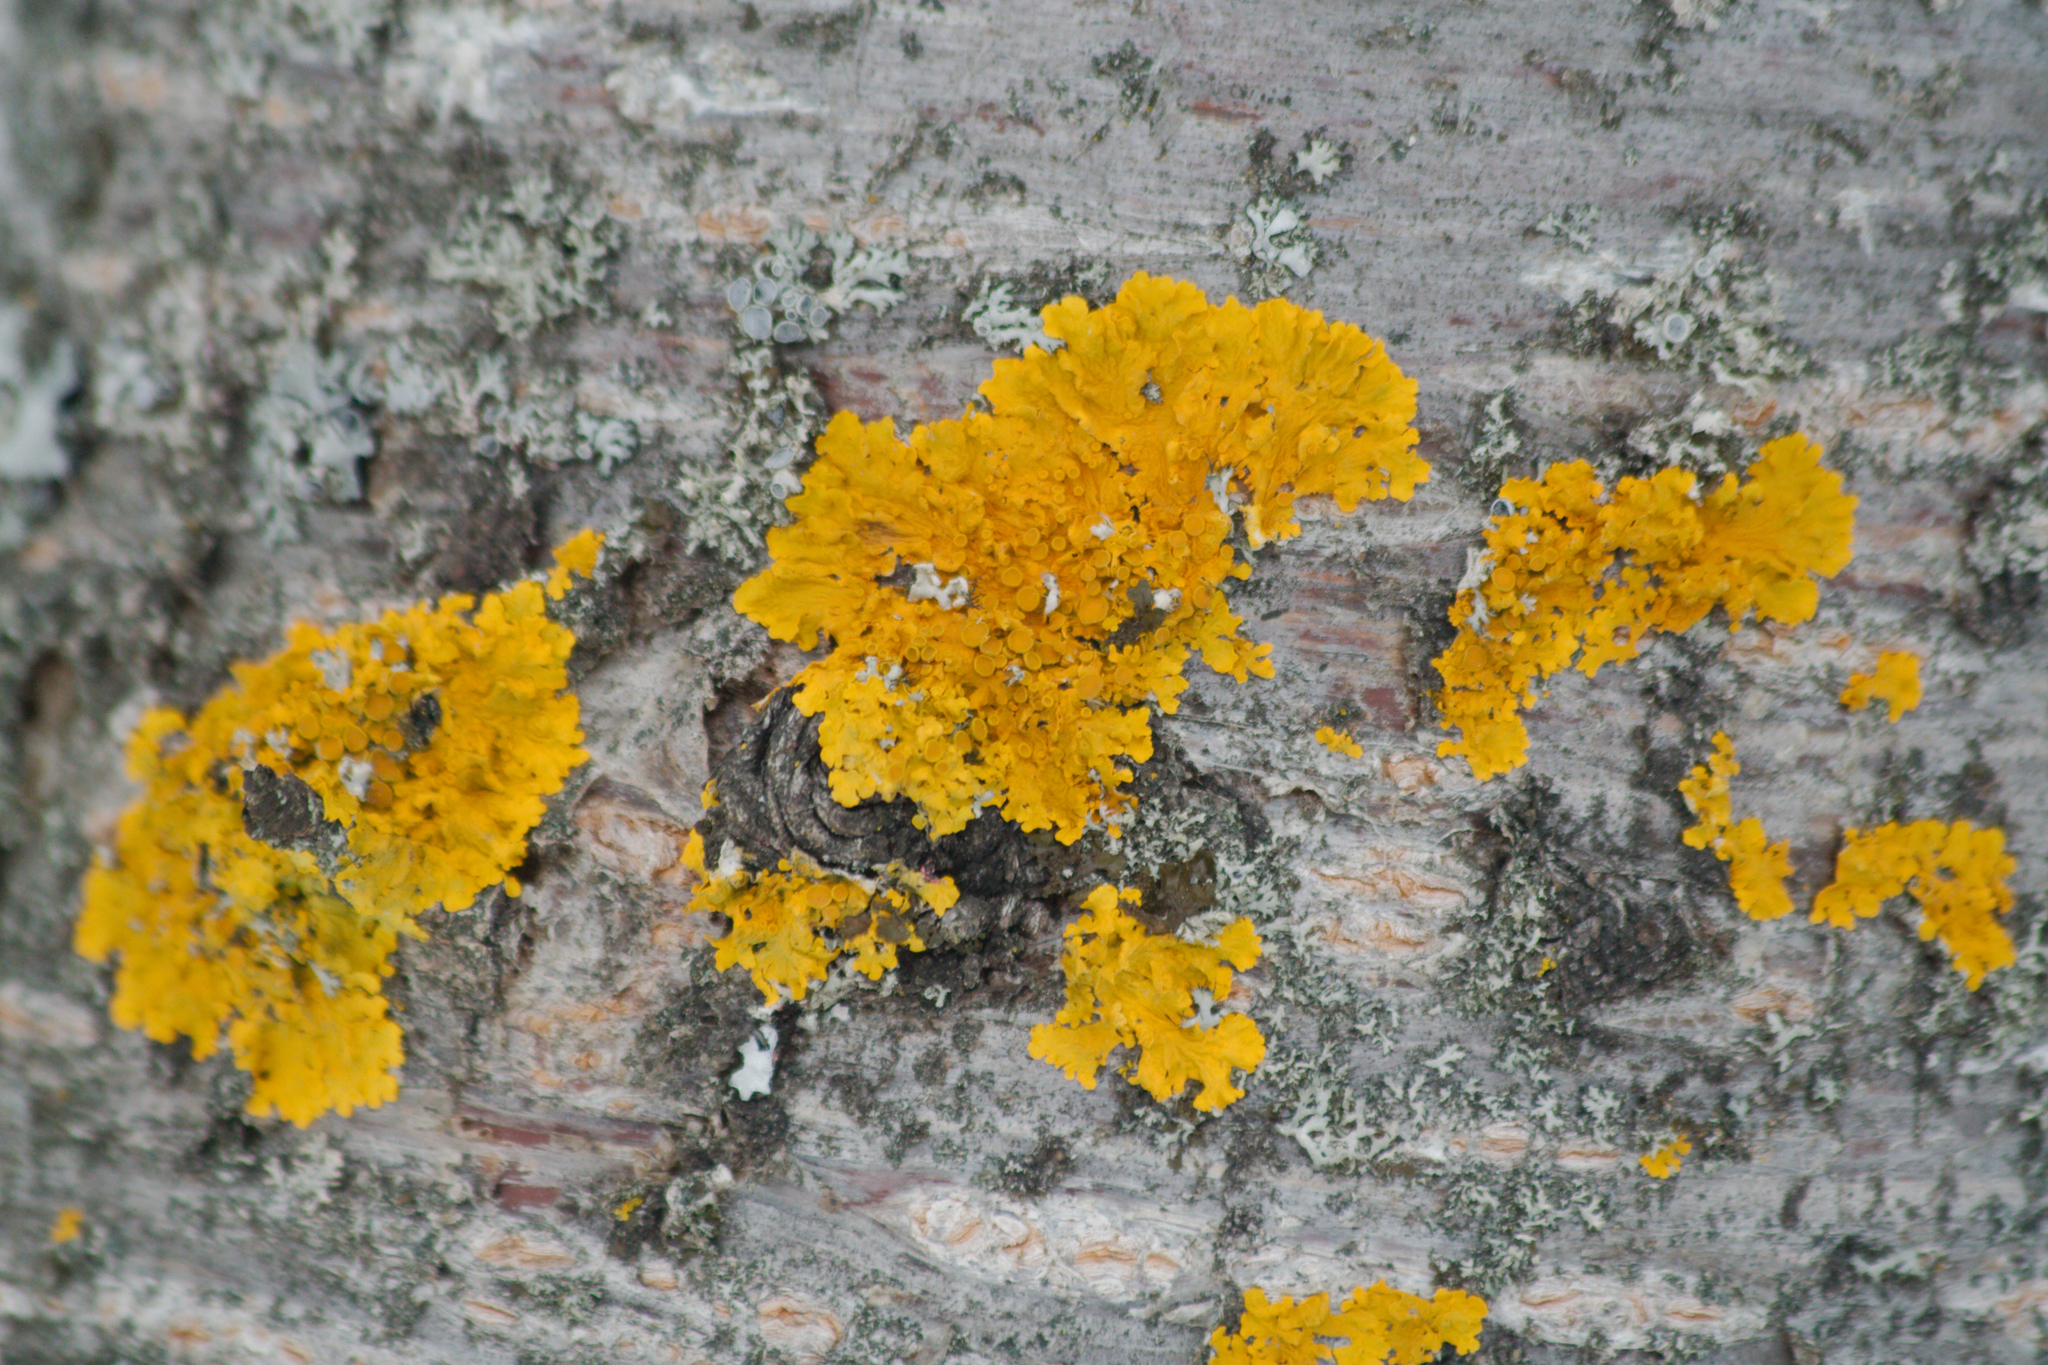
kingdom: Fungi
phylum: Ascomycota
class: Lecanoromycetes
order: Teloschistales
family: Teloschistaceae
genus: Xanthoria
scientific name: Xanthoria parietina
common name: Common orange lichen
